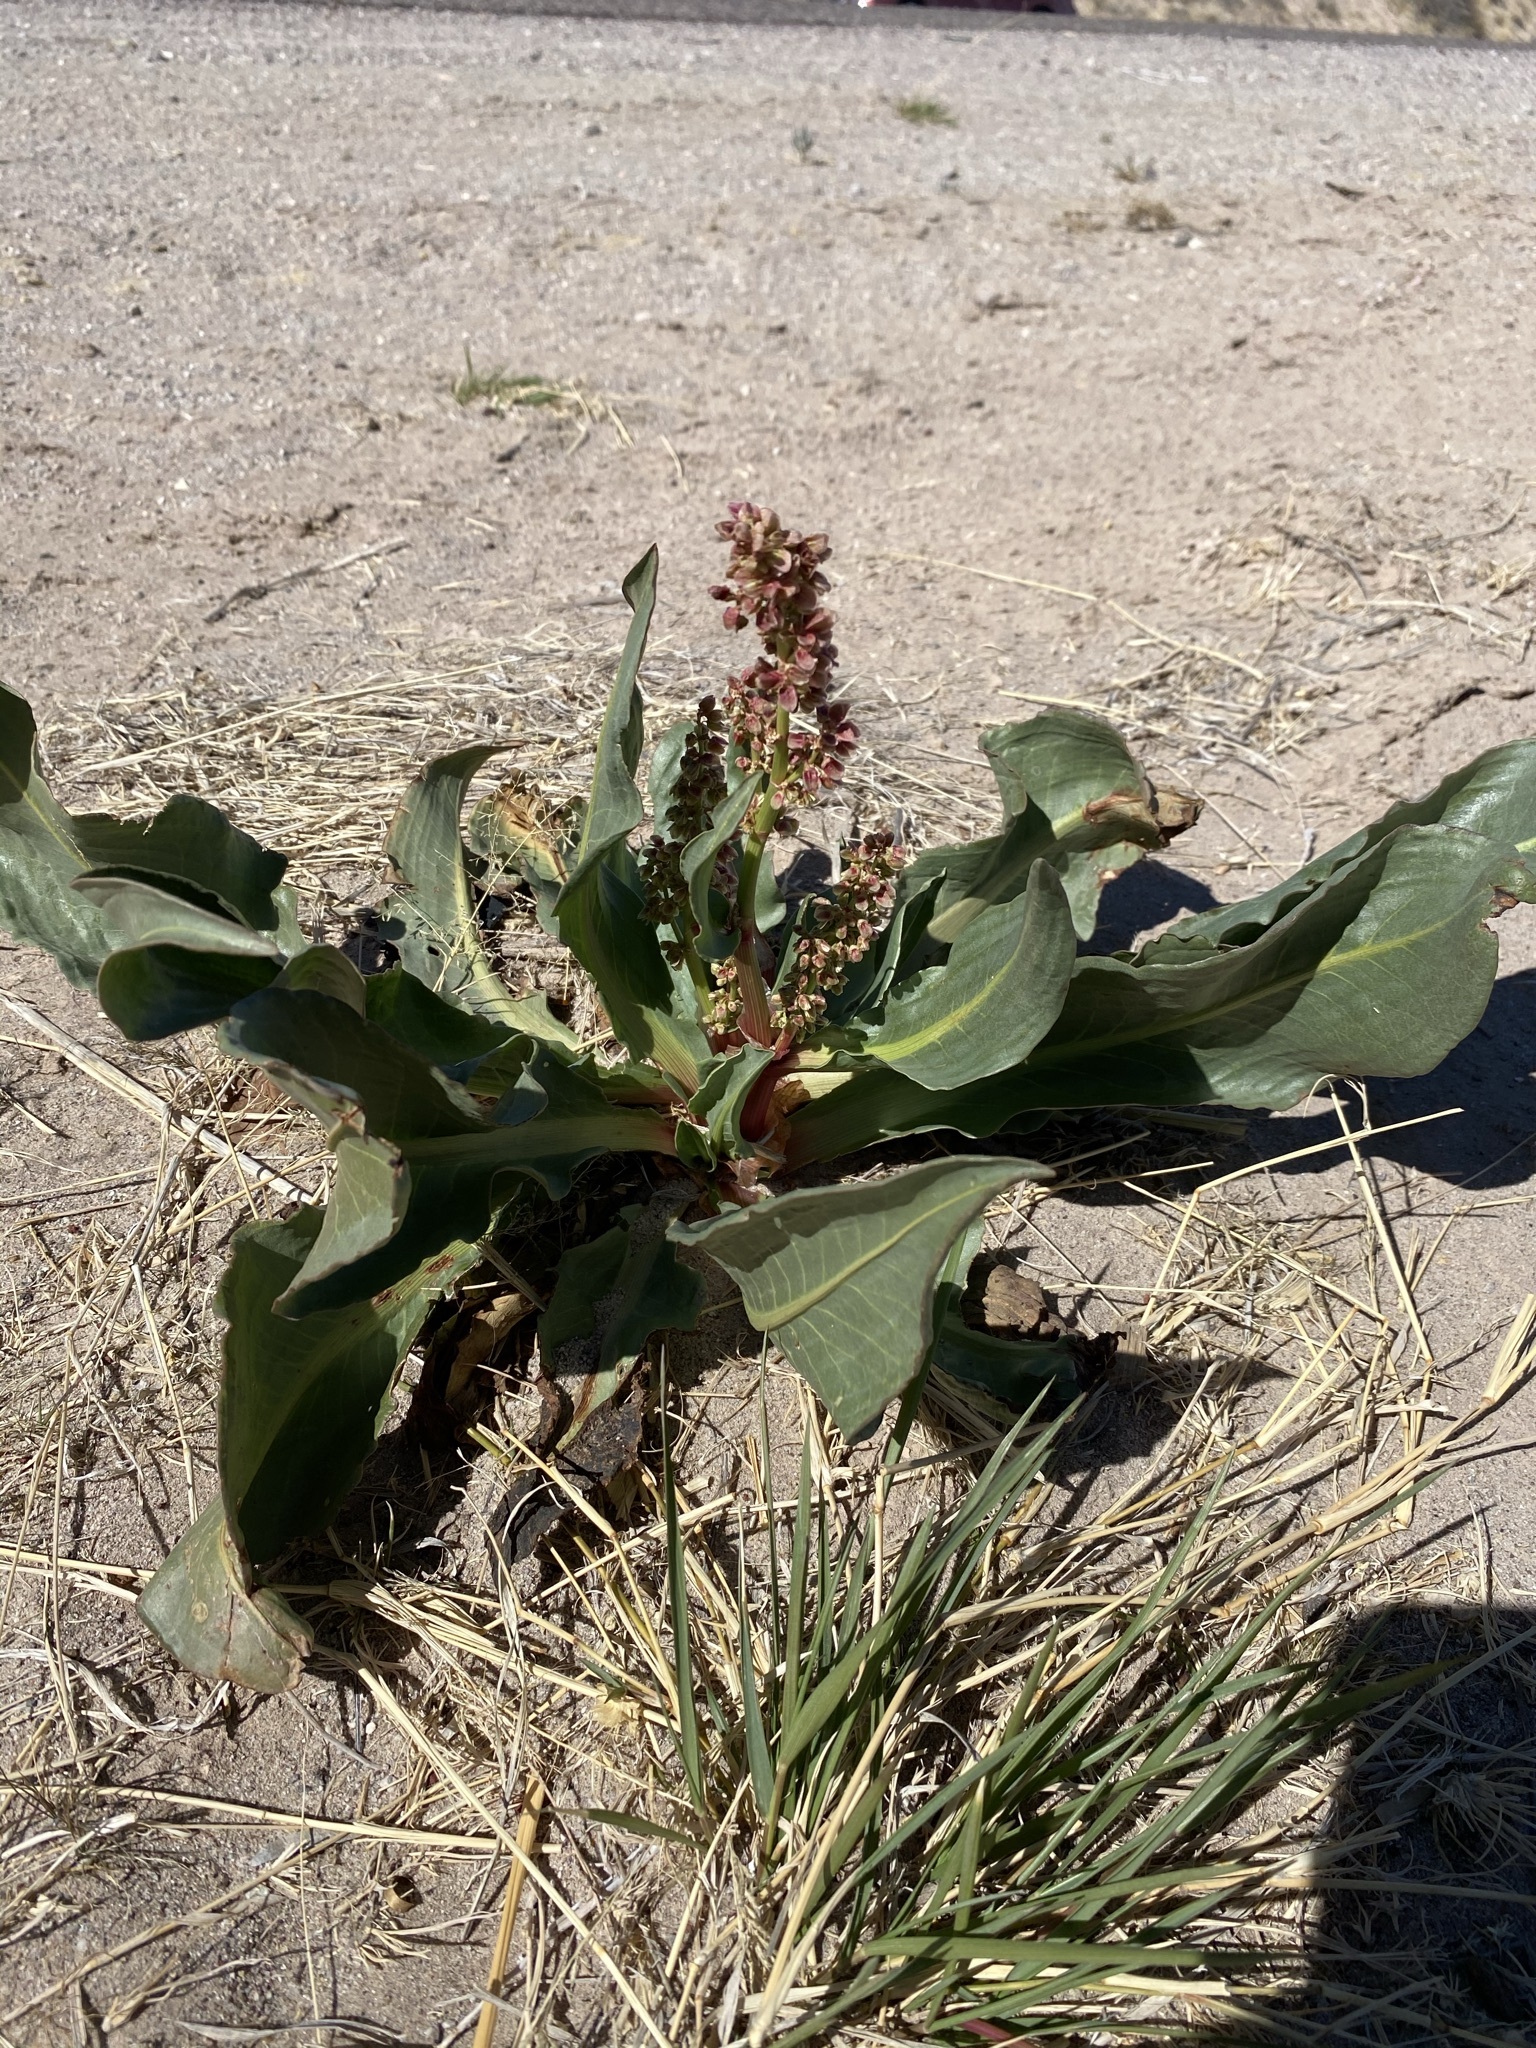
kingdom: Plantae
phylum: Tracheophyta
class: Magnoliopsida
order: Caryophyllales
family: Polygonaceae
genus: Rumex
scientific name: Rumex hymenosepalus
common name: Ganagra
